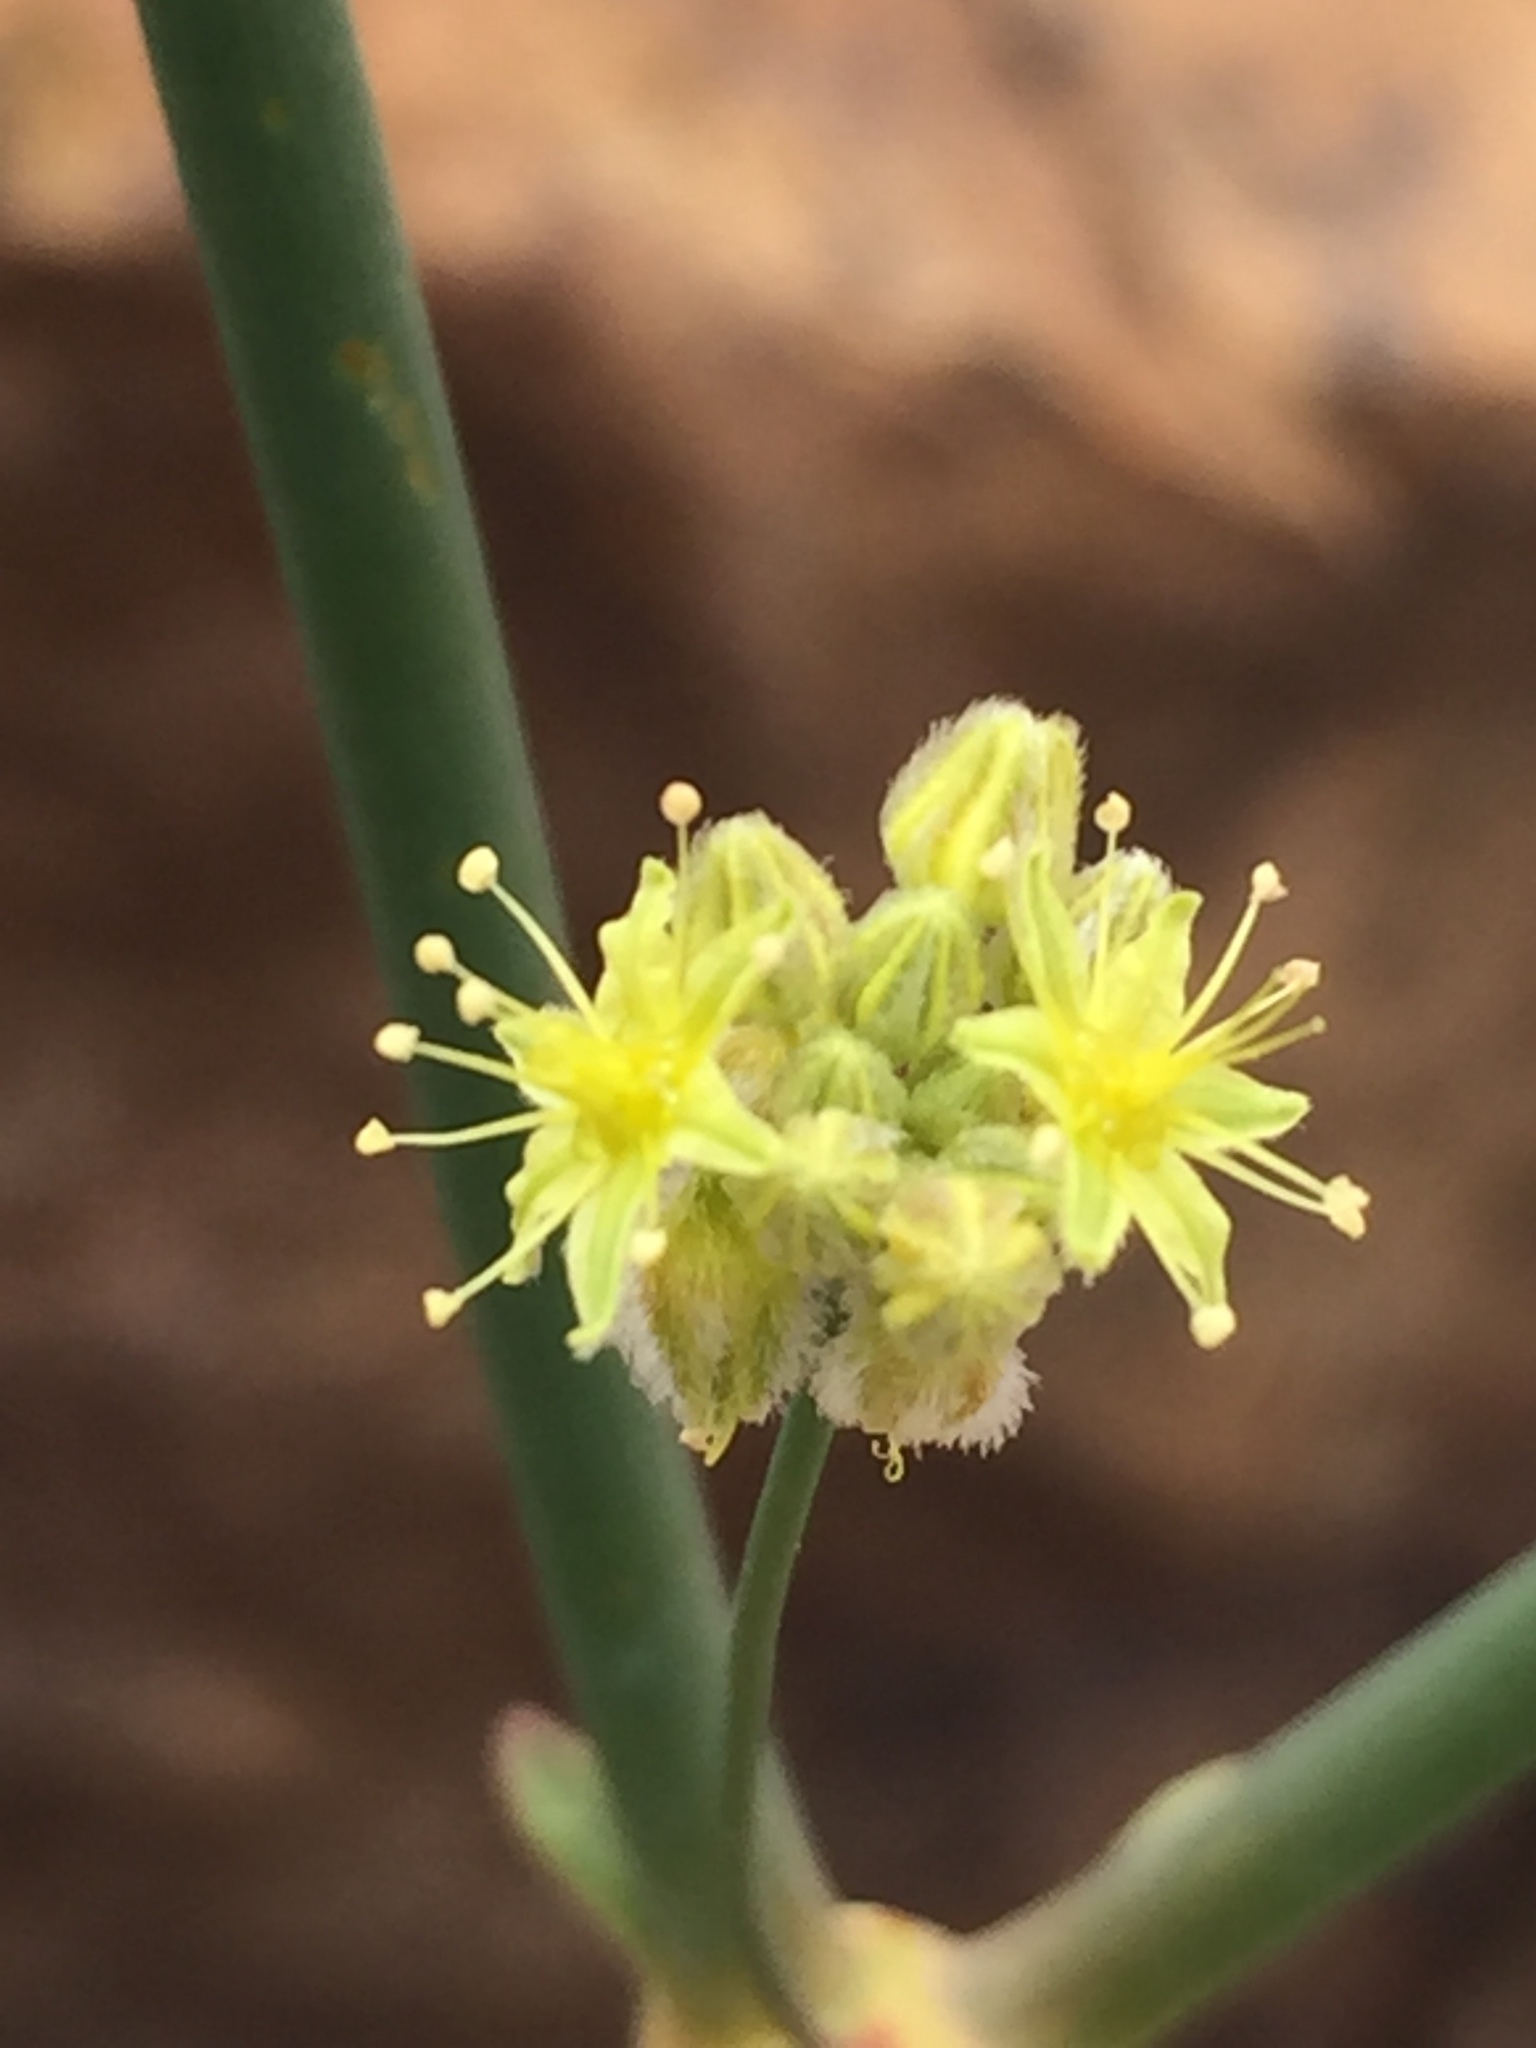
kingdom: Plantae
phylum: Tracheophyta
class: Magnoliopsida
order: Caryophyllales
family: Polygonaceae
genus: Eriogonum
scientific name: Eriogonum inflatum
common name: Desert trumpet
